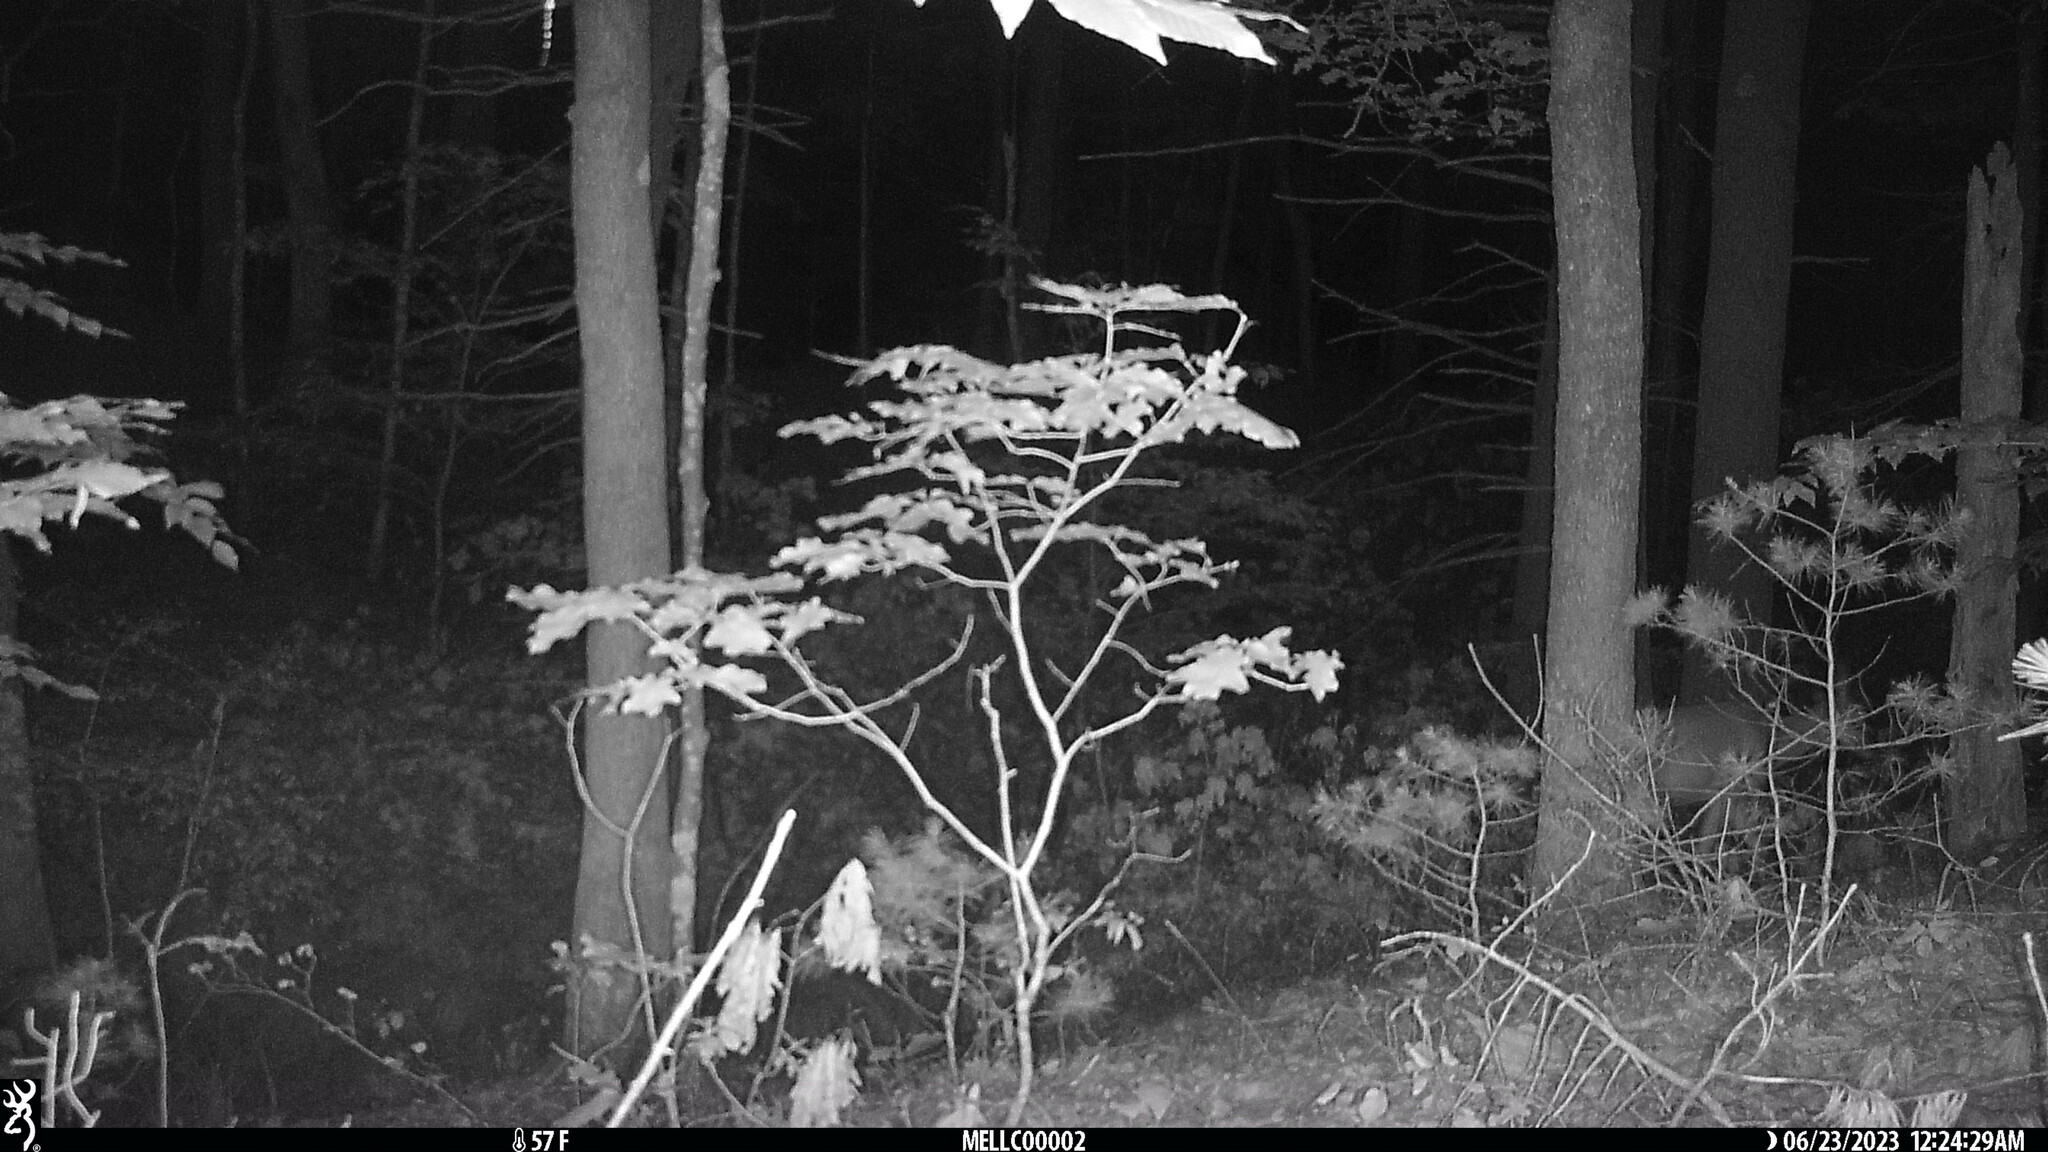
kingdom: Animalia
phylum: Chordata
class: Mammalia
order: Artiodactyla
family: Cervidae
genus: Odocoileus
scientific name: Odocoileus virginianus
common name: White-tailed deer
